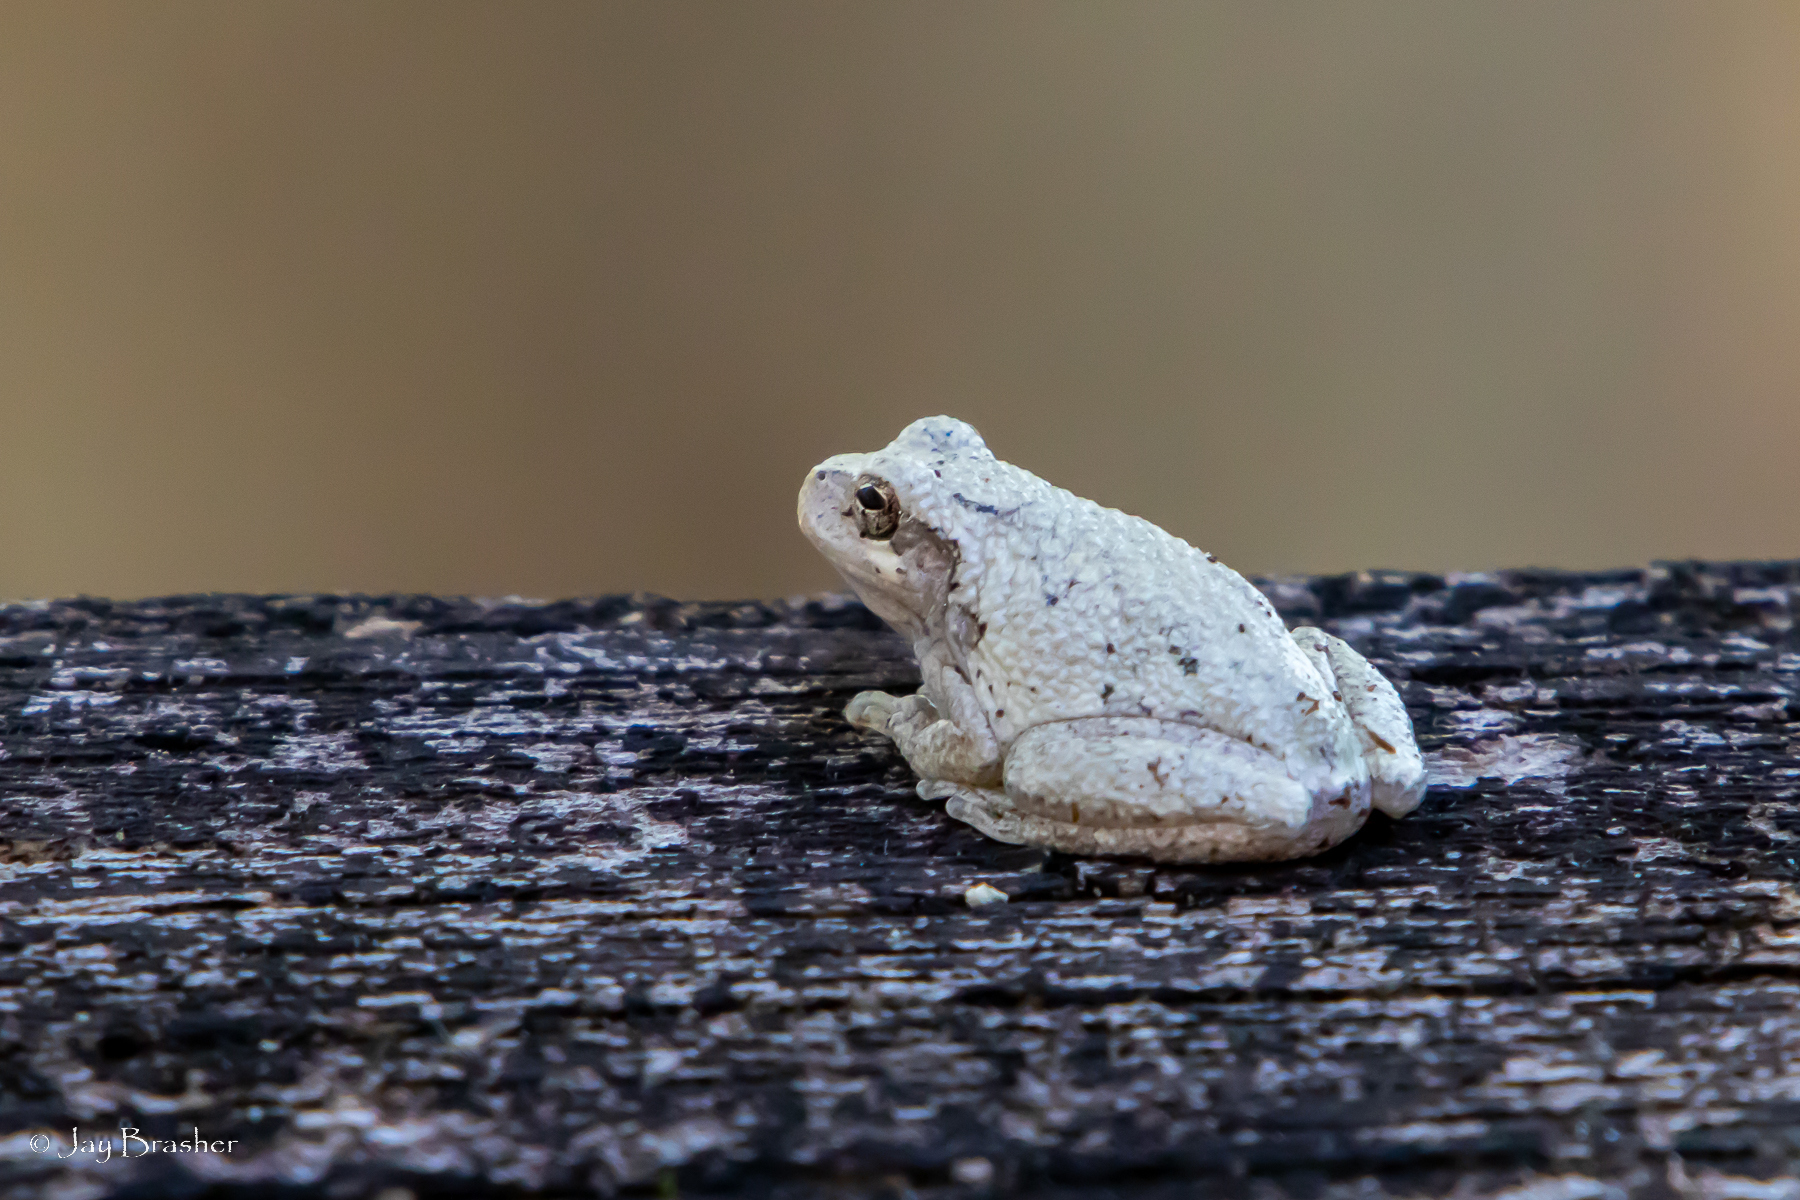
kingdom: Animalia
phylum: Chordata
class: Amphibia
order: Anura
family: Hylidae
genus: Dryophytes
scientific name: Dryophytes chrysoscelis
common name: Cope's gray treefrog
